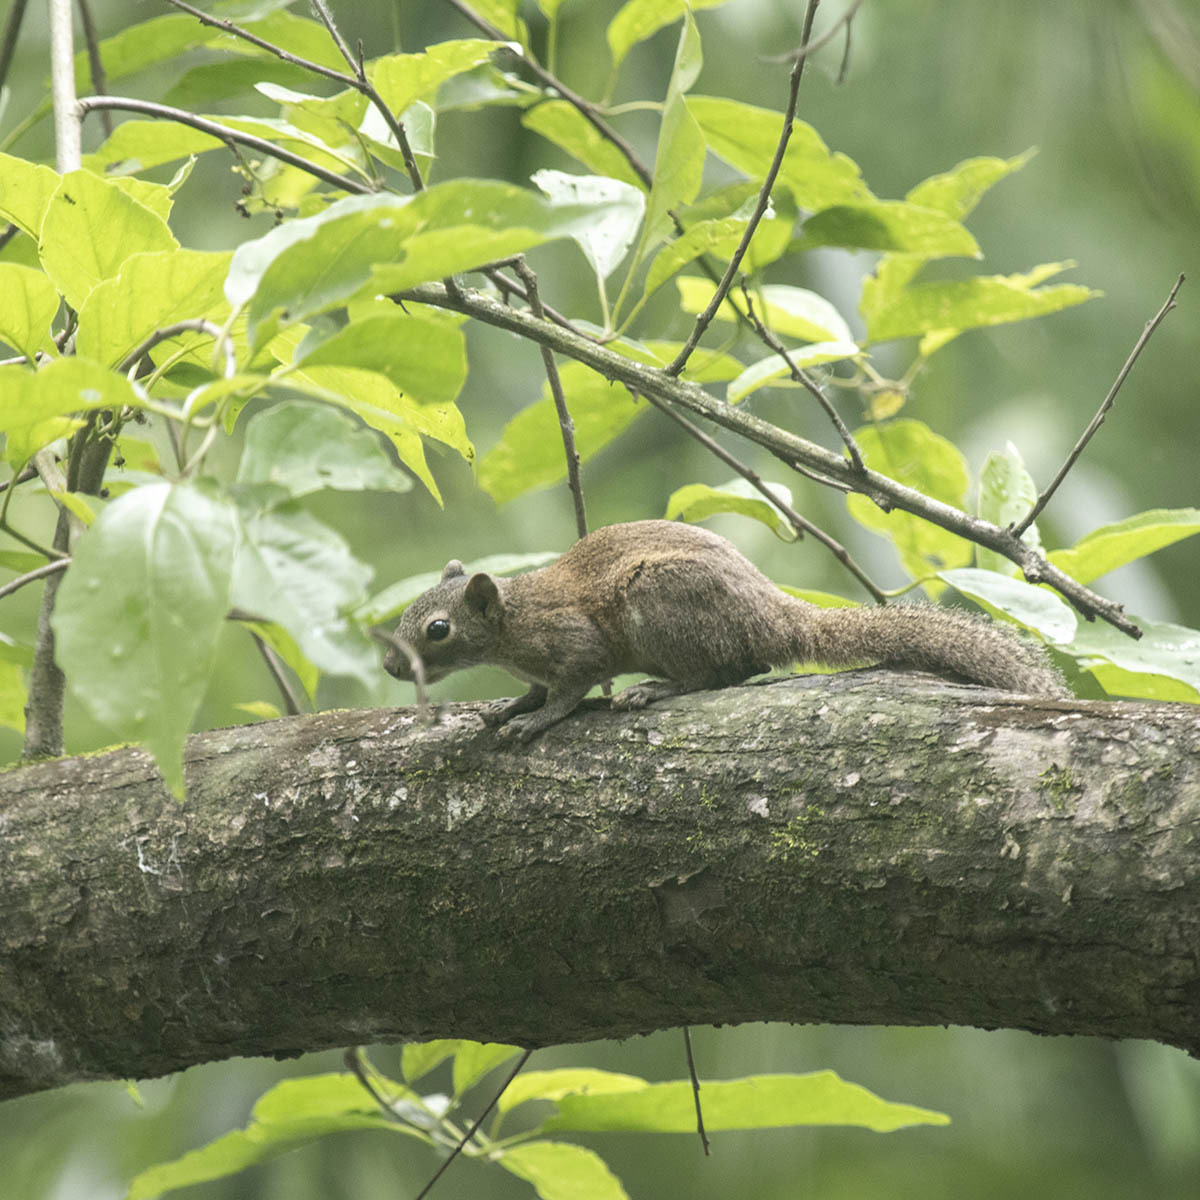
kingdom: Animalia
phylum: Chordata
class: Mammalia
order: Rodentia
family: Sciuridae
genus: Callosciurus
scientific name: Callosciurus pygerythrus
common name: Irrawaddy squirrel
